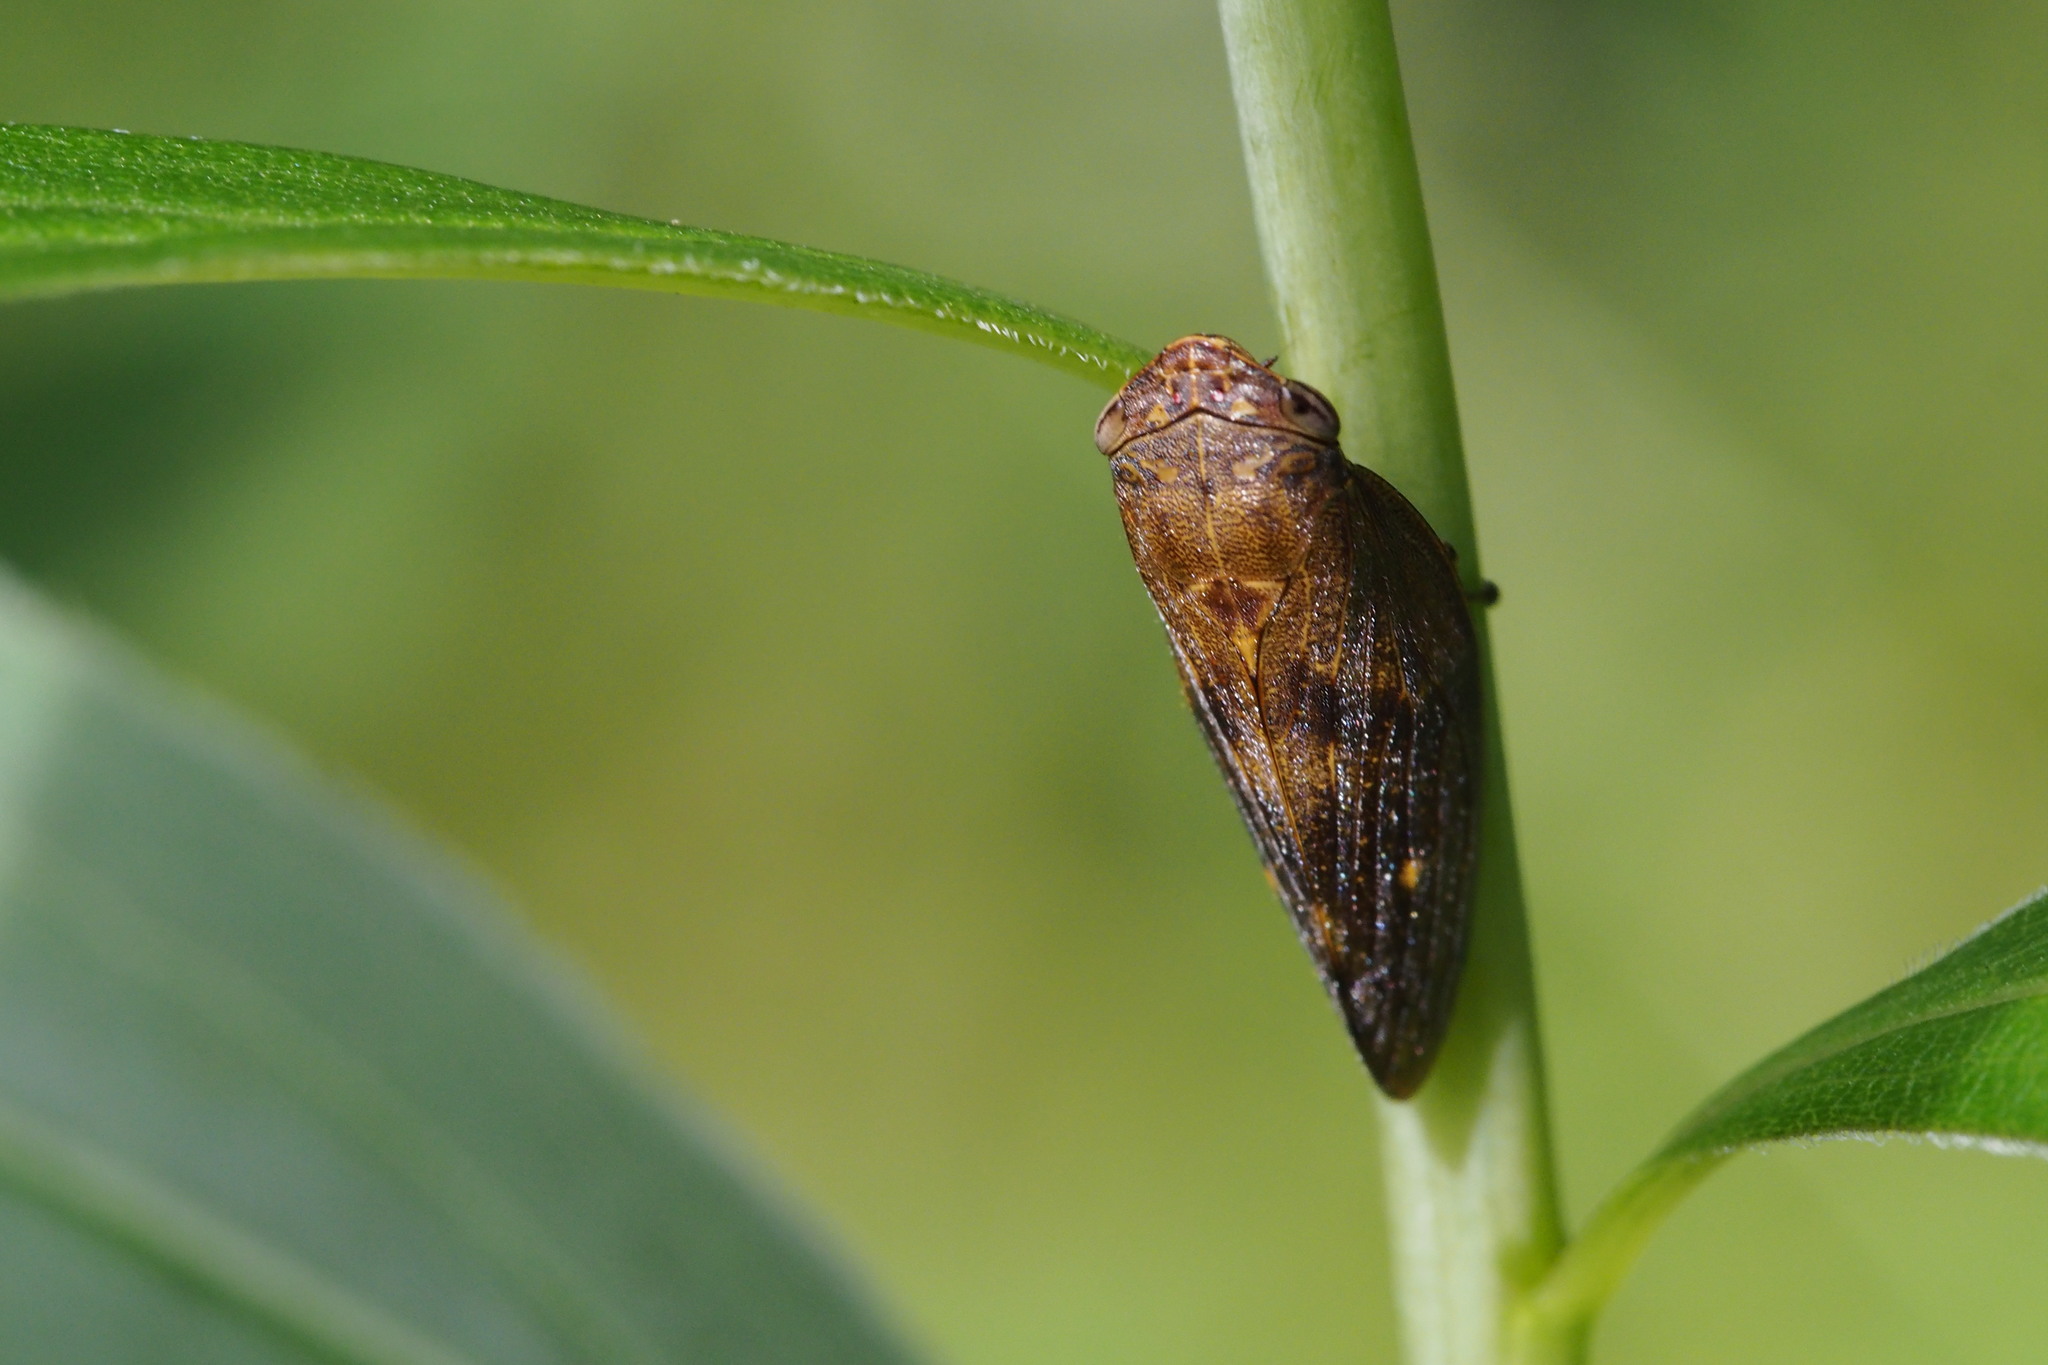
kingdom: Animalia
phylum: Arthropoda
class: Insecta
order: Hemiptera
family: Aphrophoridae
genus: Aphrophora
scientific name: Aphrophora major
